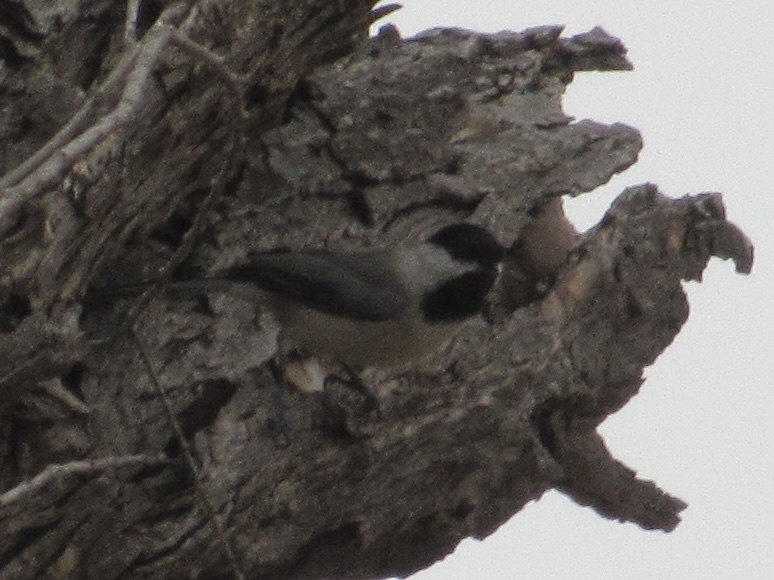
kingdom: Animalia
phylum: Chordata
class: Aves
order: Passeriformes
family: Paridae
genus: Poecile
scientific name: Poecile carolinensis
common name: Carolina chickadee
